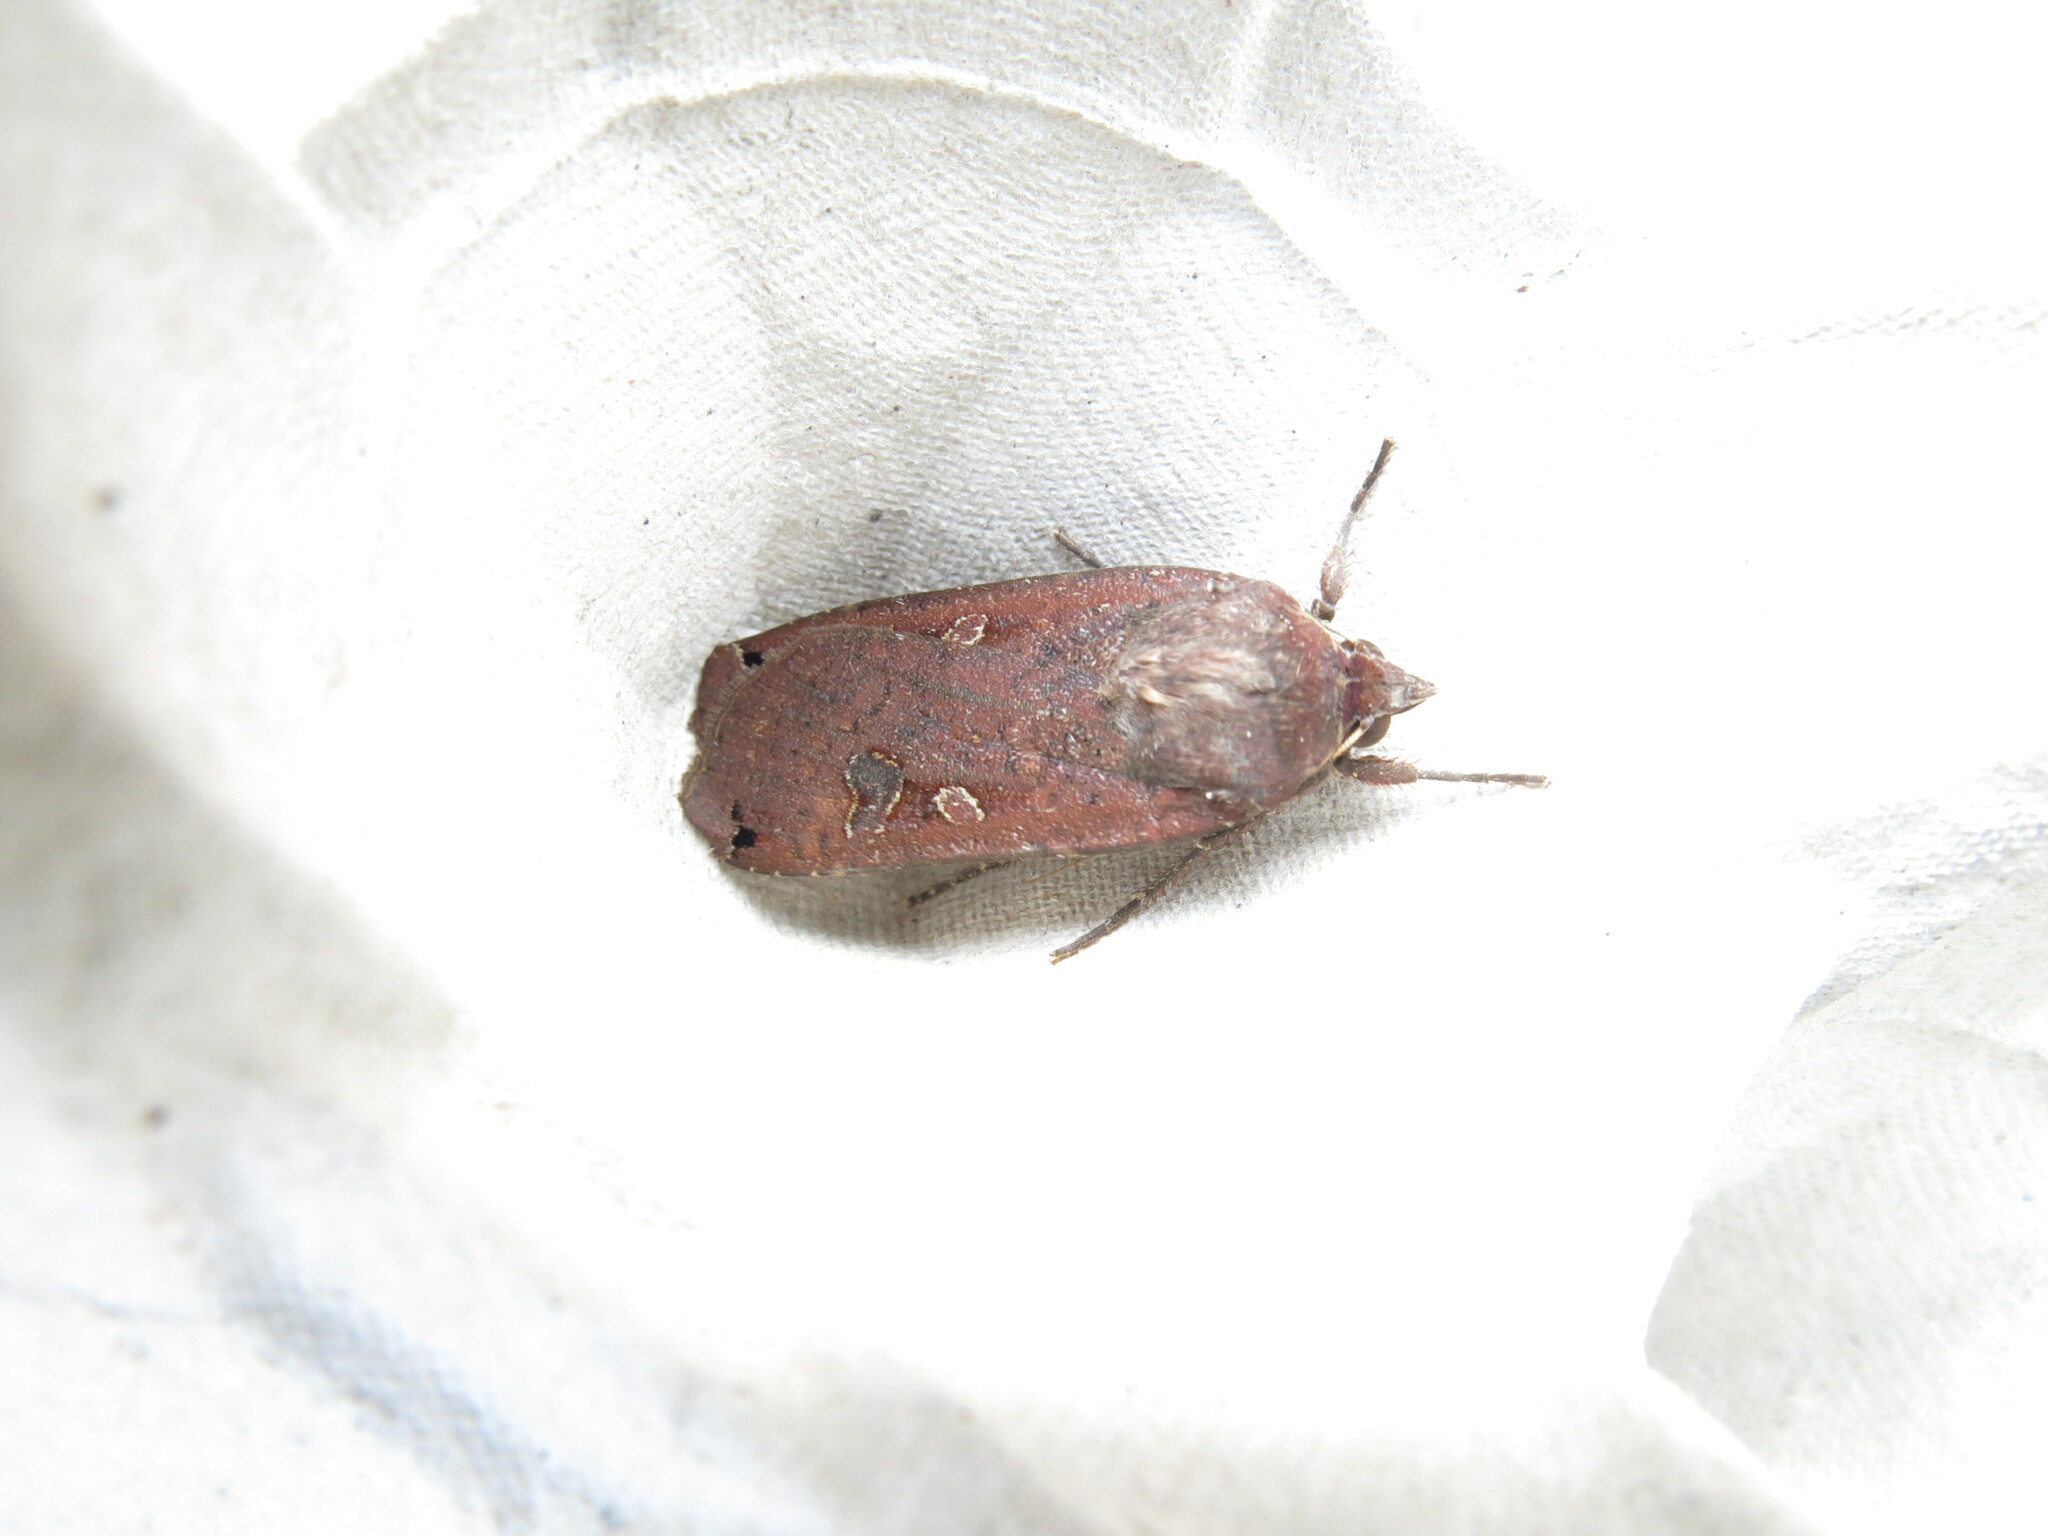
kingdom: Animalia
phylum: Arthropoda
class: Insecta
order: Lepidoptera
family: Noctuidae
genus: Noctua
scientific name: Noctua pronuba
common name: Large yellow underwing
